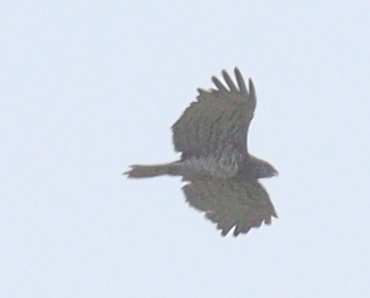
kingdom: Animalia
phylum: Chordata
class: Aves
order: Accipitriformes
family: Accipitridae
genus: Circaetus
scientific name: Circaetus gallicus
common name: Short-toed snake eagle
